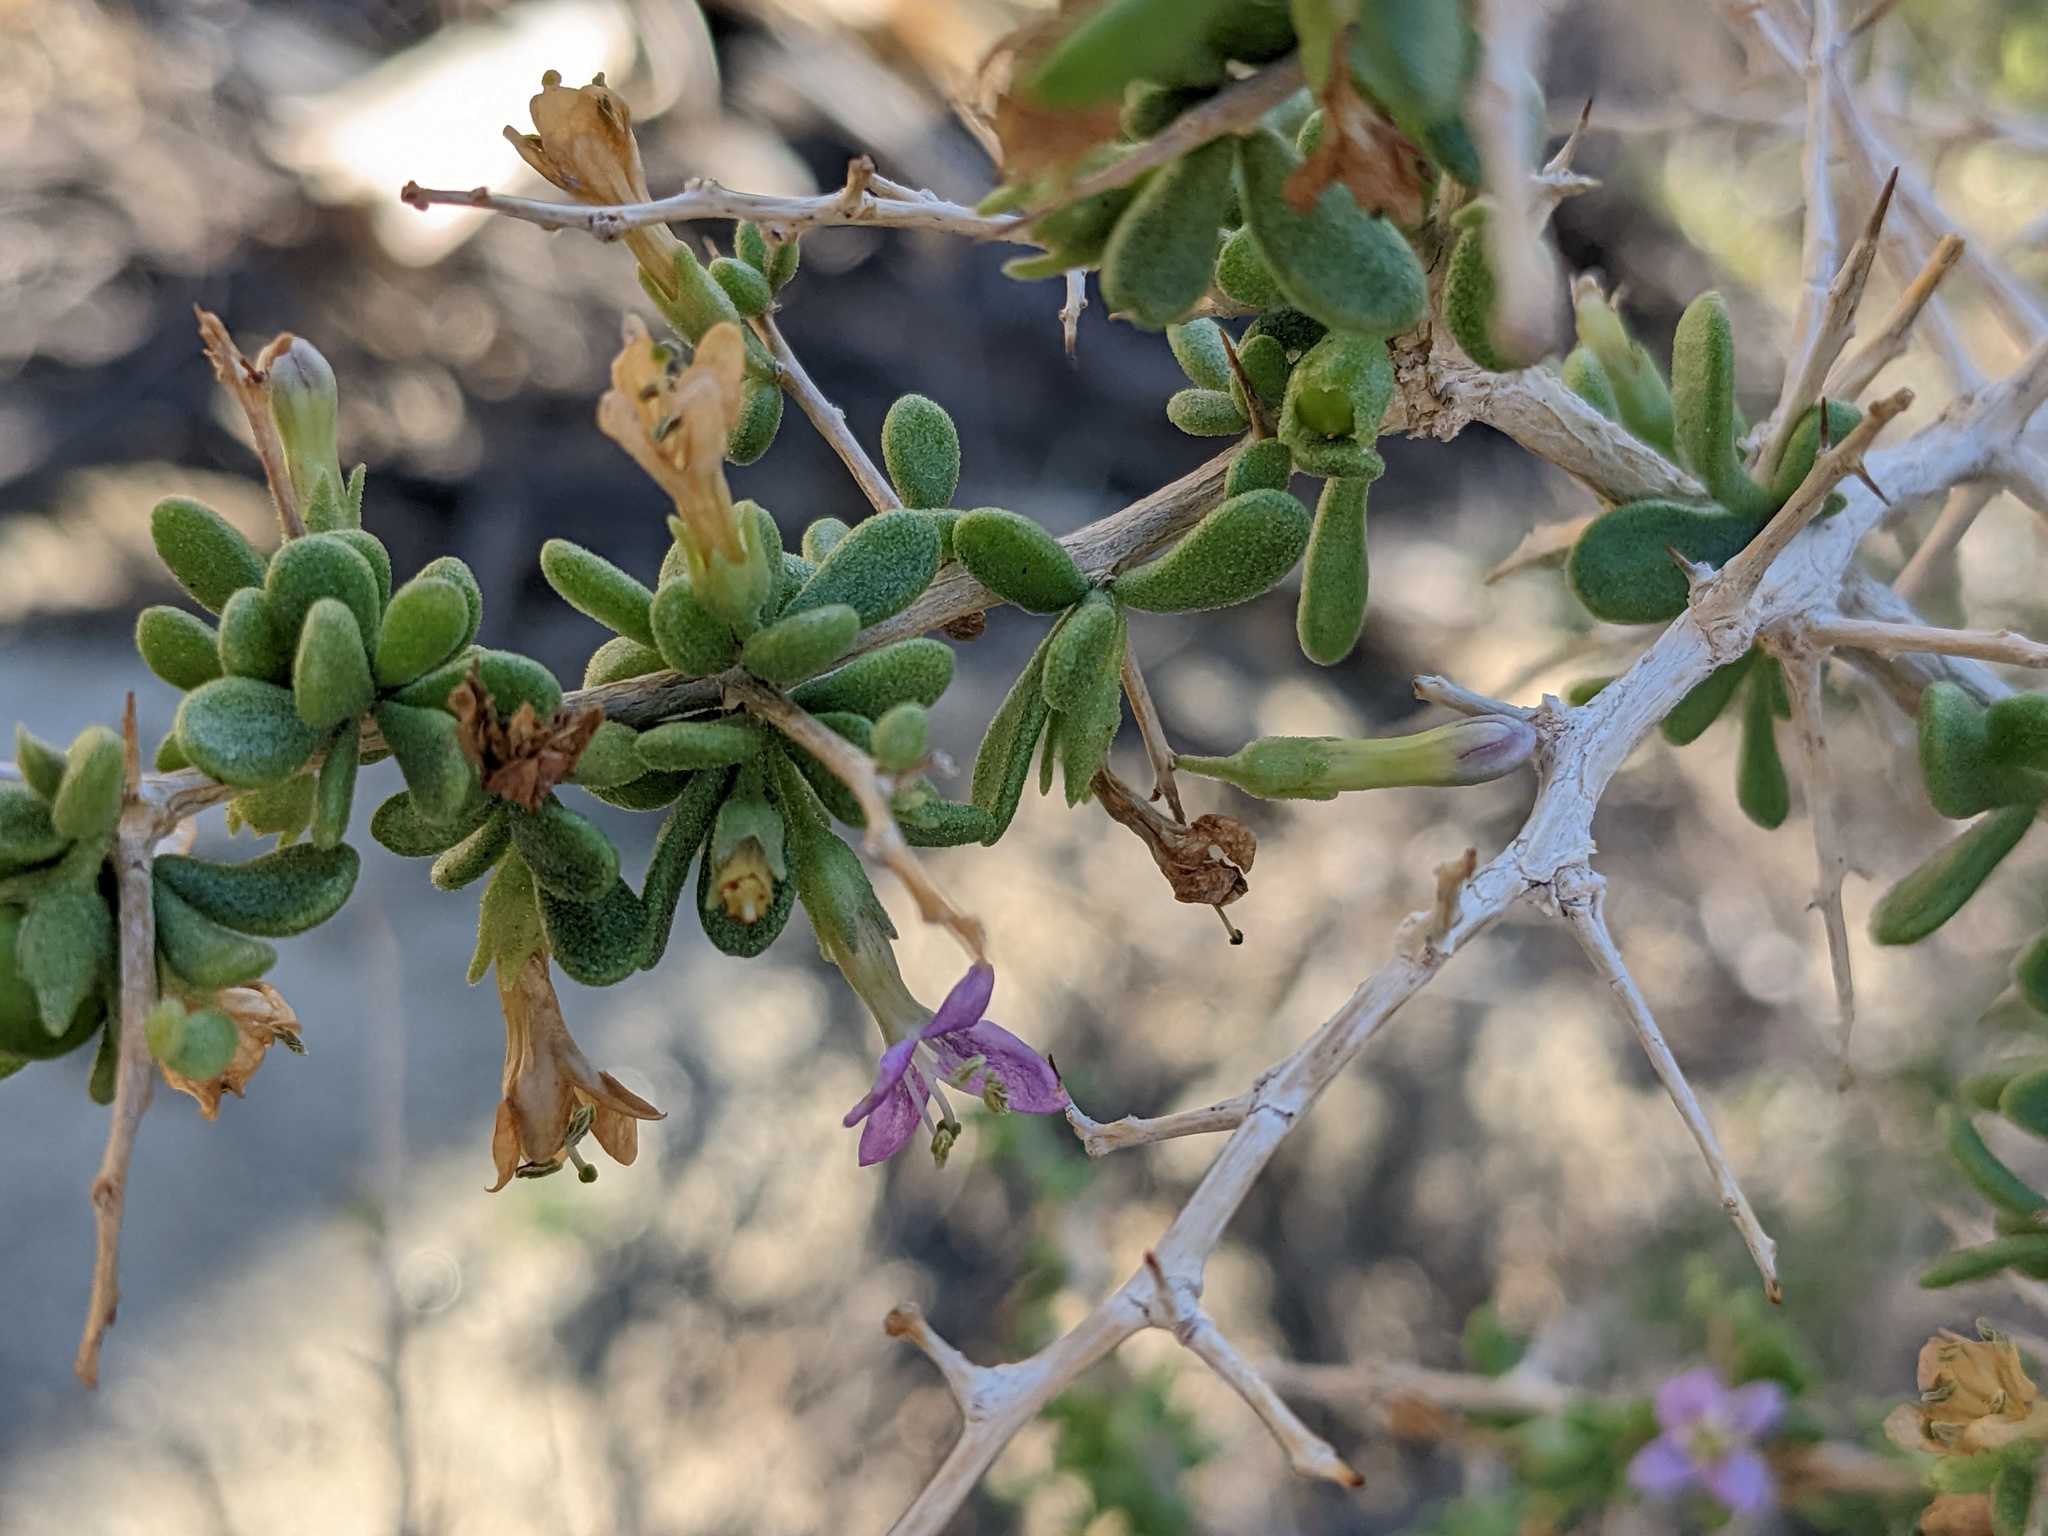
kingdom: Plantae
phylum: Tracheophyta
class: Magnoliopsida
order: Solanales
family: Solanaceae
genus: Lycium
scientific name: Lycium brevipes
